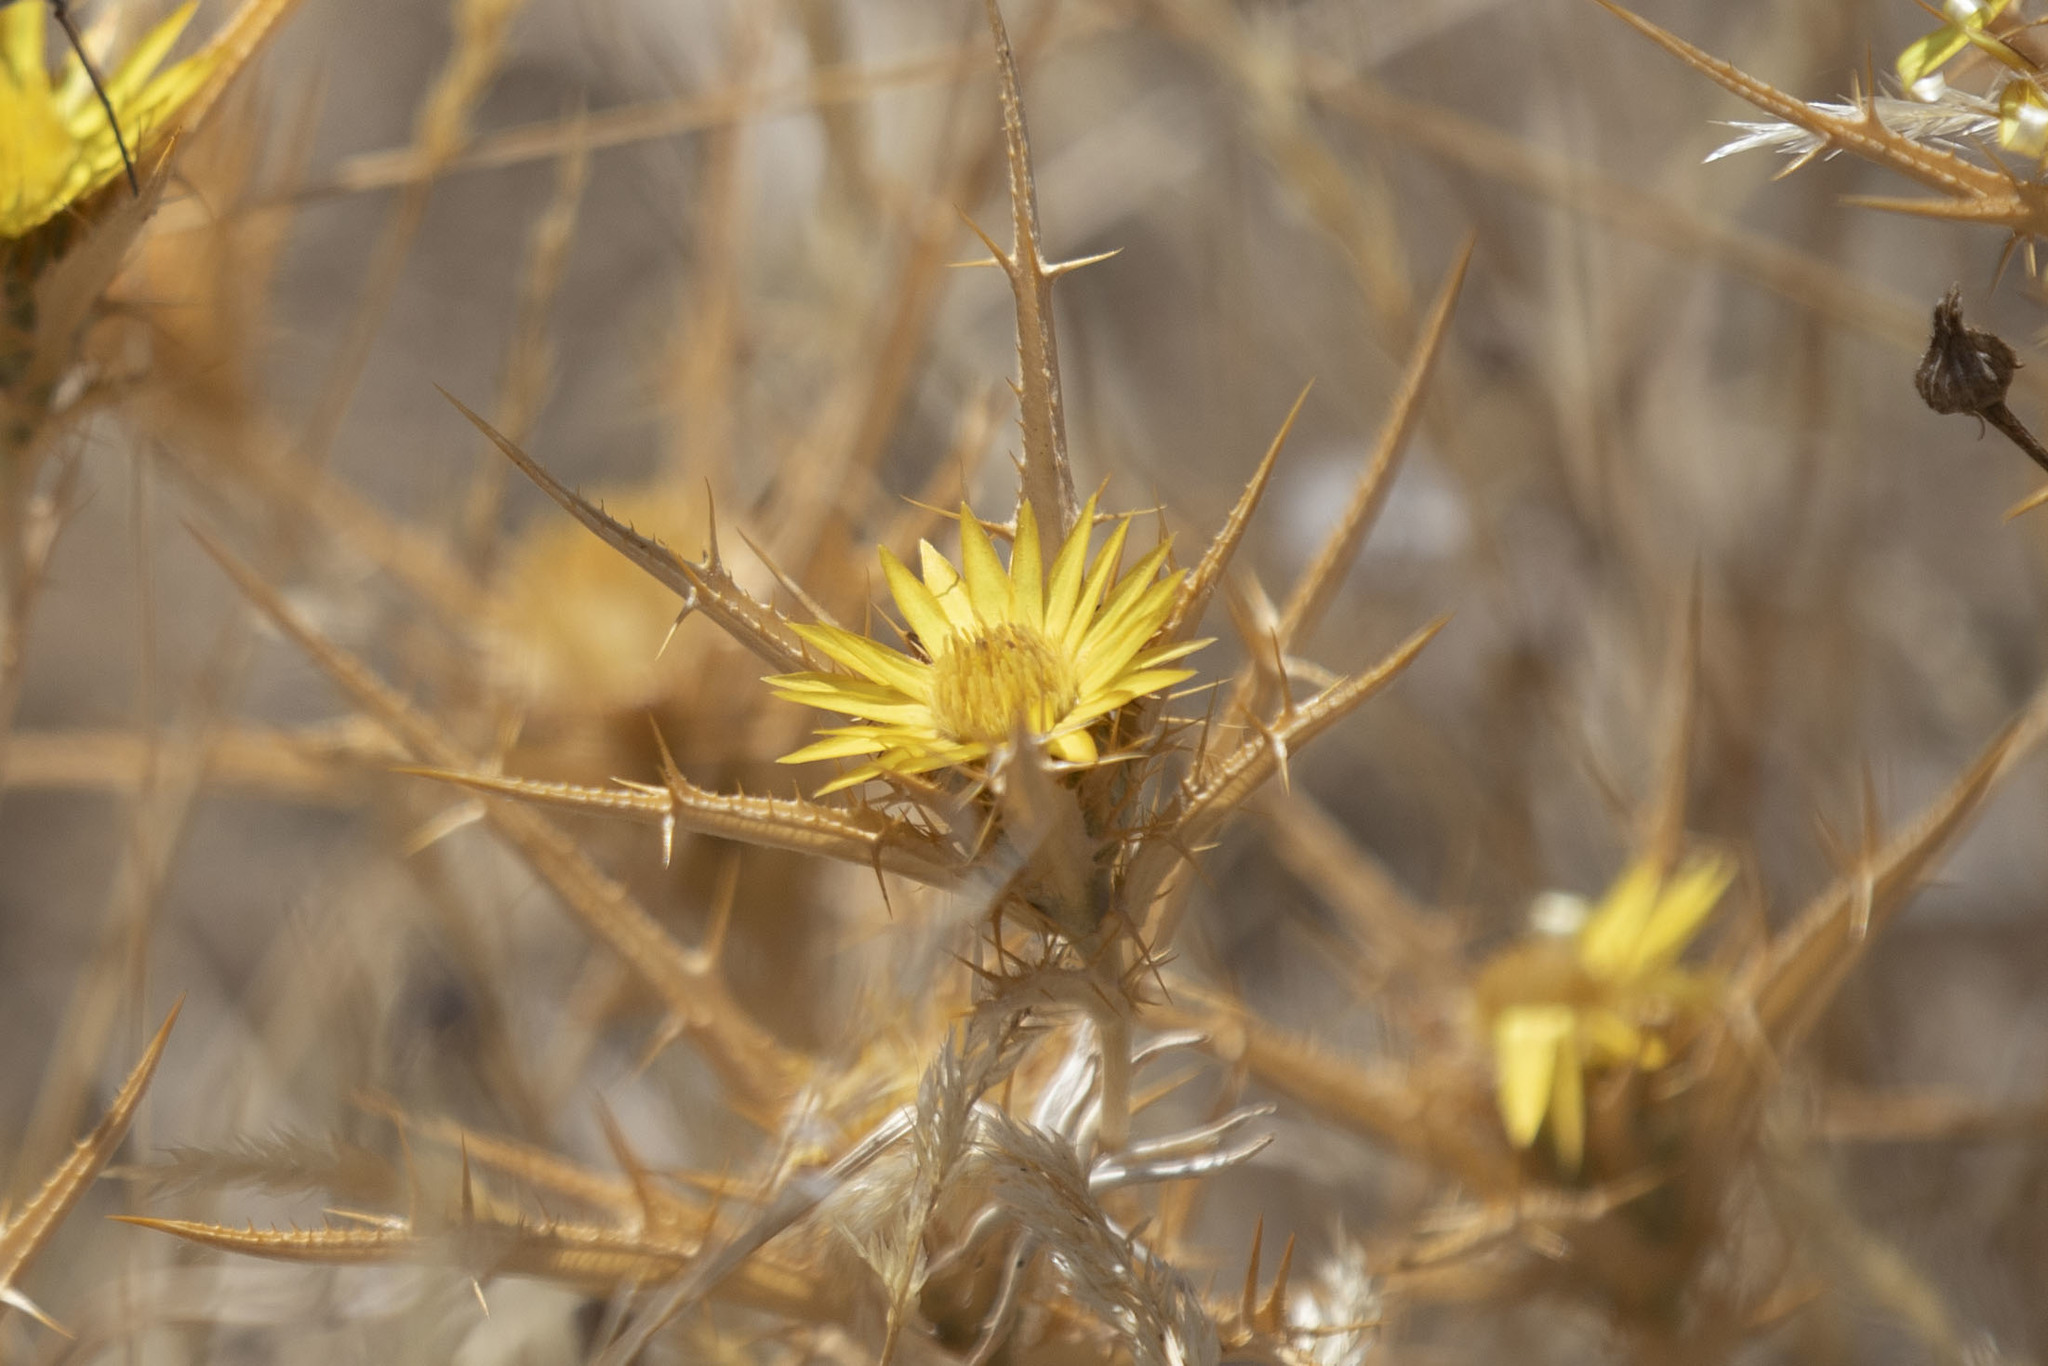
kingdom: Plantae
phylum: Tracheophyta
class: Magnoliopsida
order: Asterales
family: Asteraceae
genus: Carlina
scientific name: Carlina racemosa
